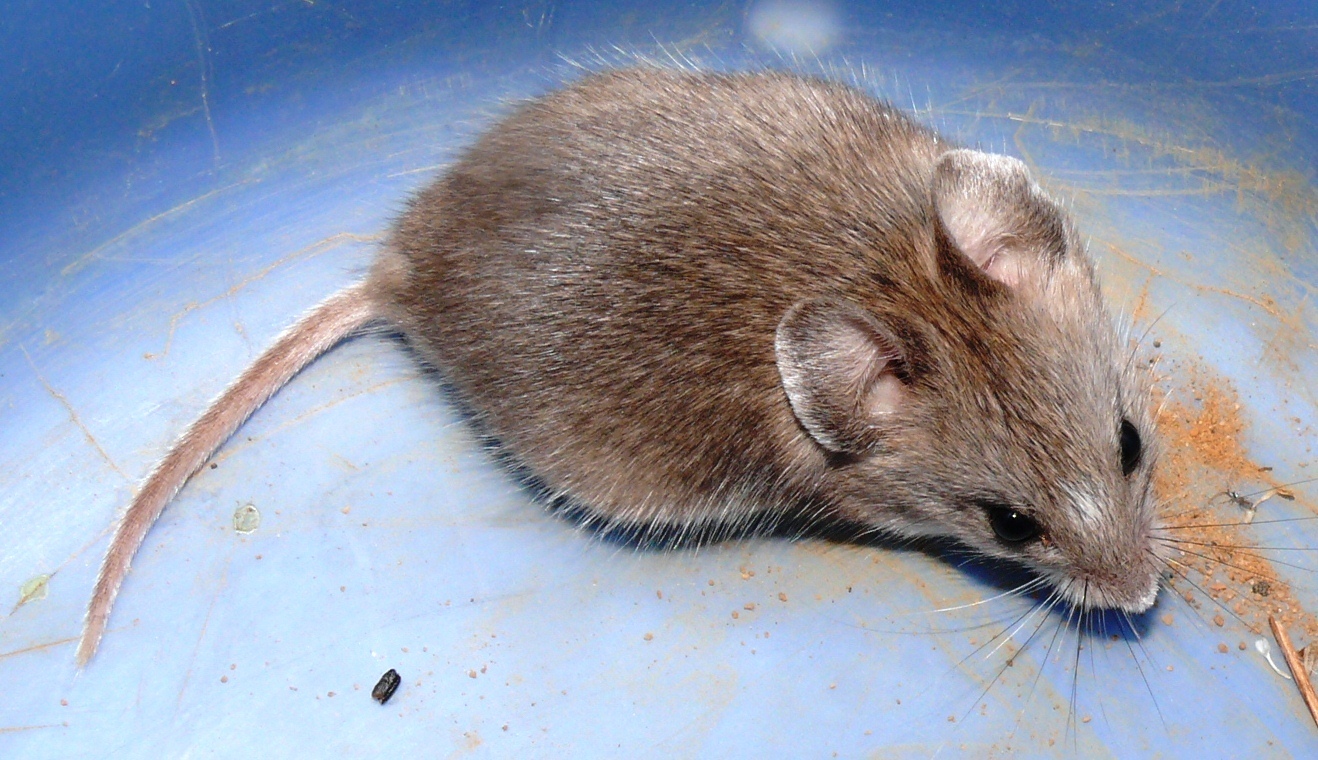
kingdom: Animalia
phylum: Chordata
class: Mammalia
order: Rodentia
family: Nesomyidae
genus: Steatomys
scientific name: Steatomys krebsii
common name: Kreb's fat mouse
